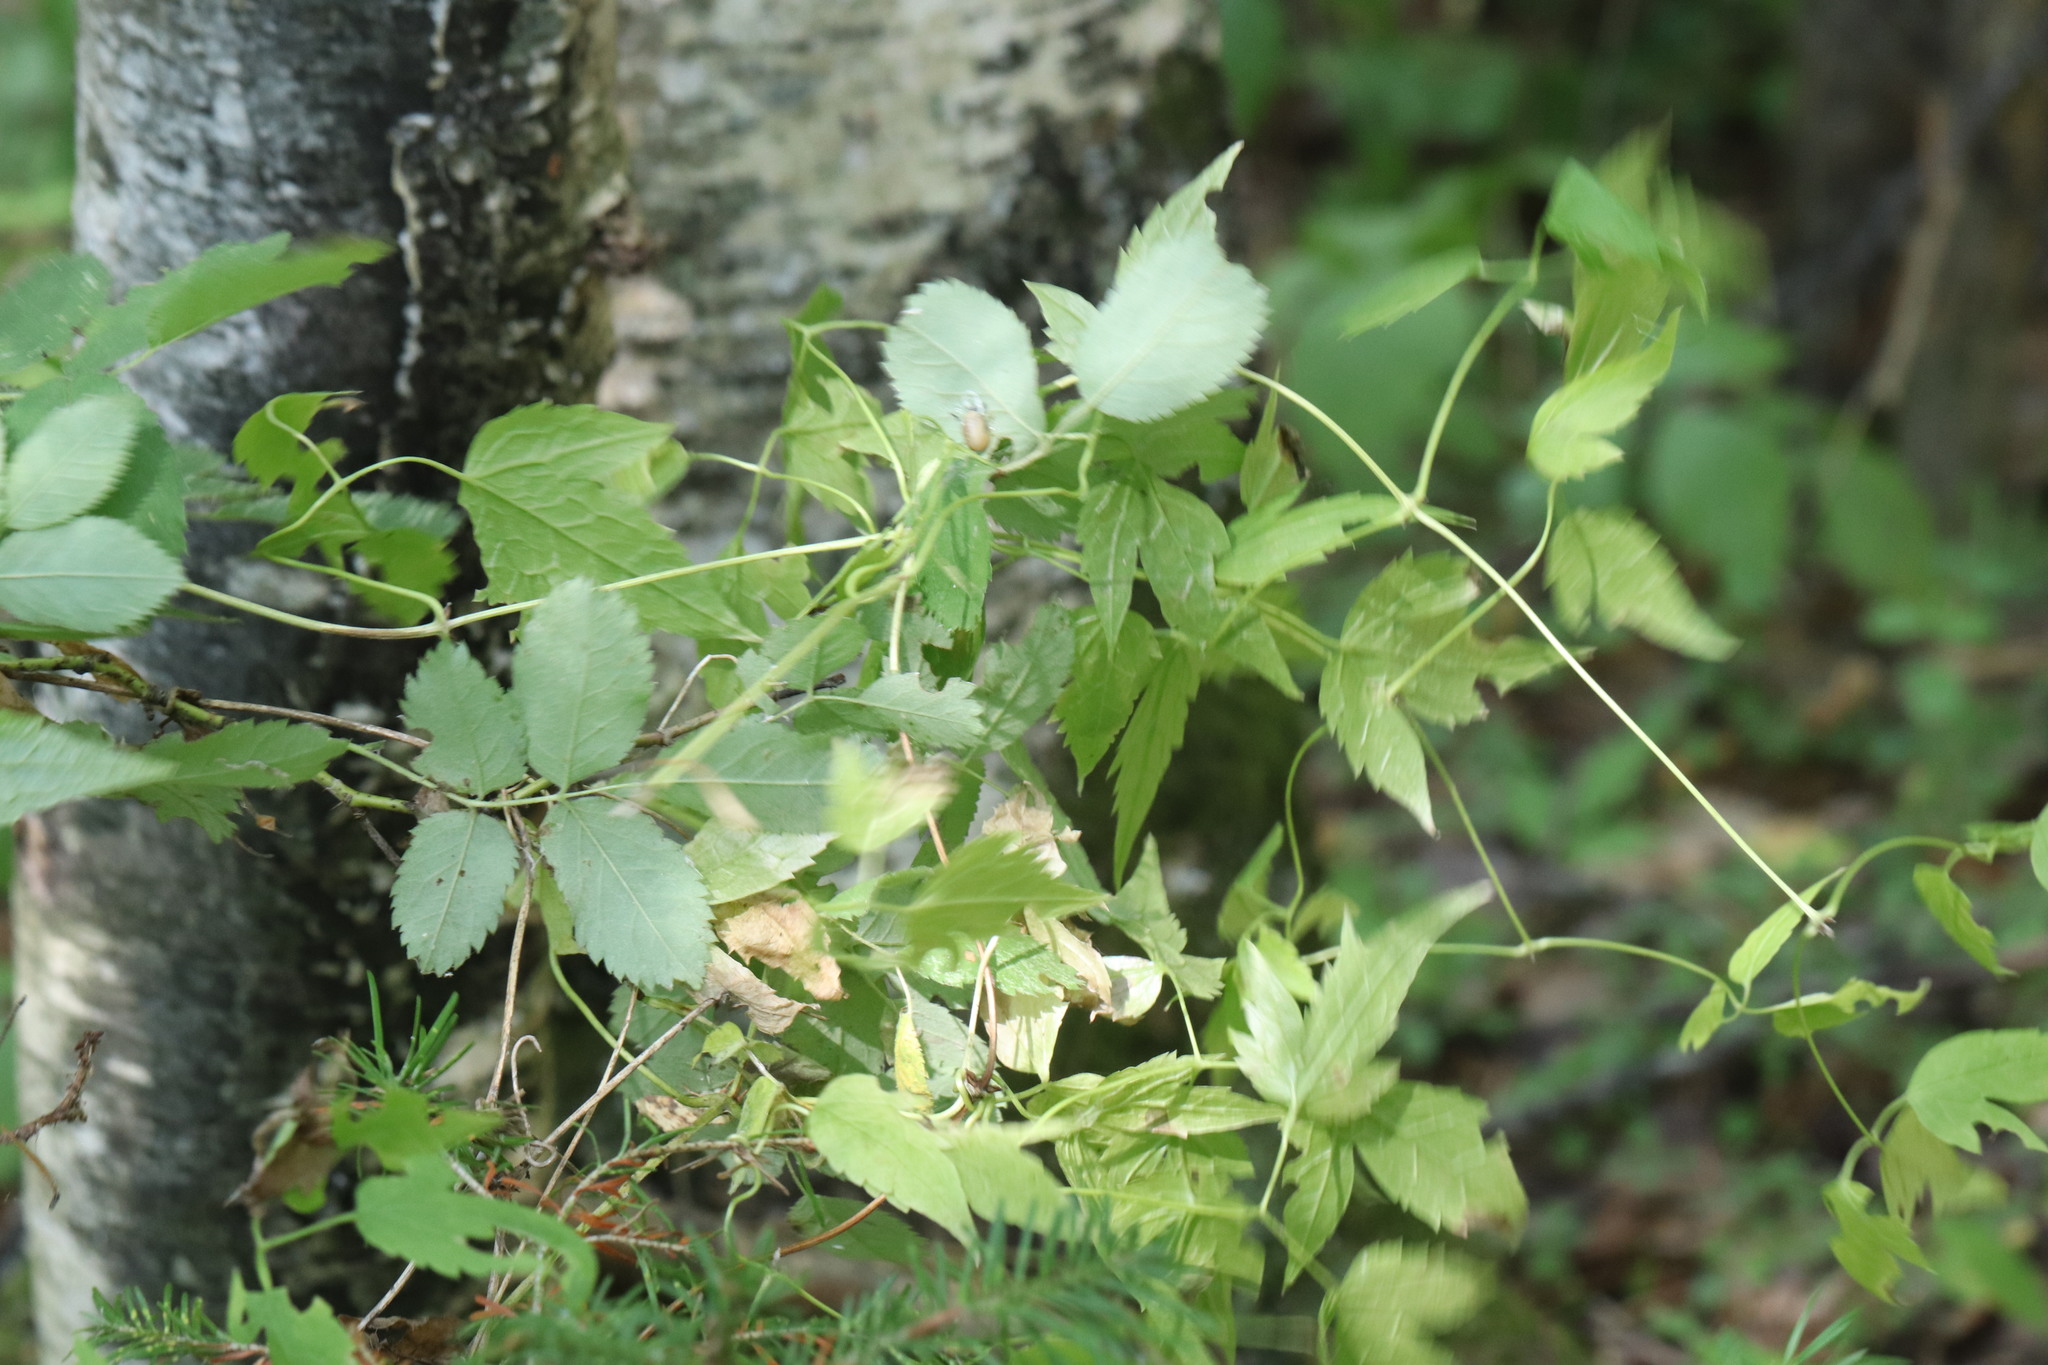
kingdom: Plantae
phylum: Tracheophyta
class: Magnoliopsida
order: Ranunculales
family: Ranunculaceae
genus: Clematis
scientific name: Clematis sibirica
